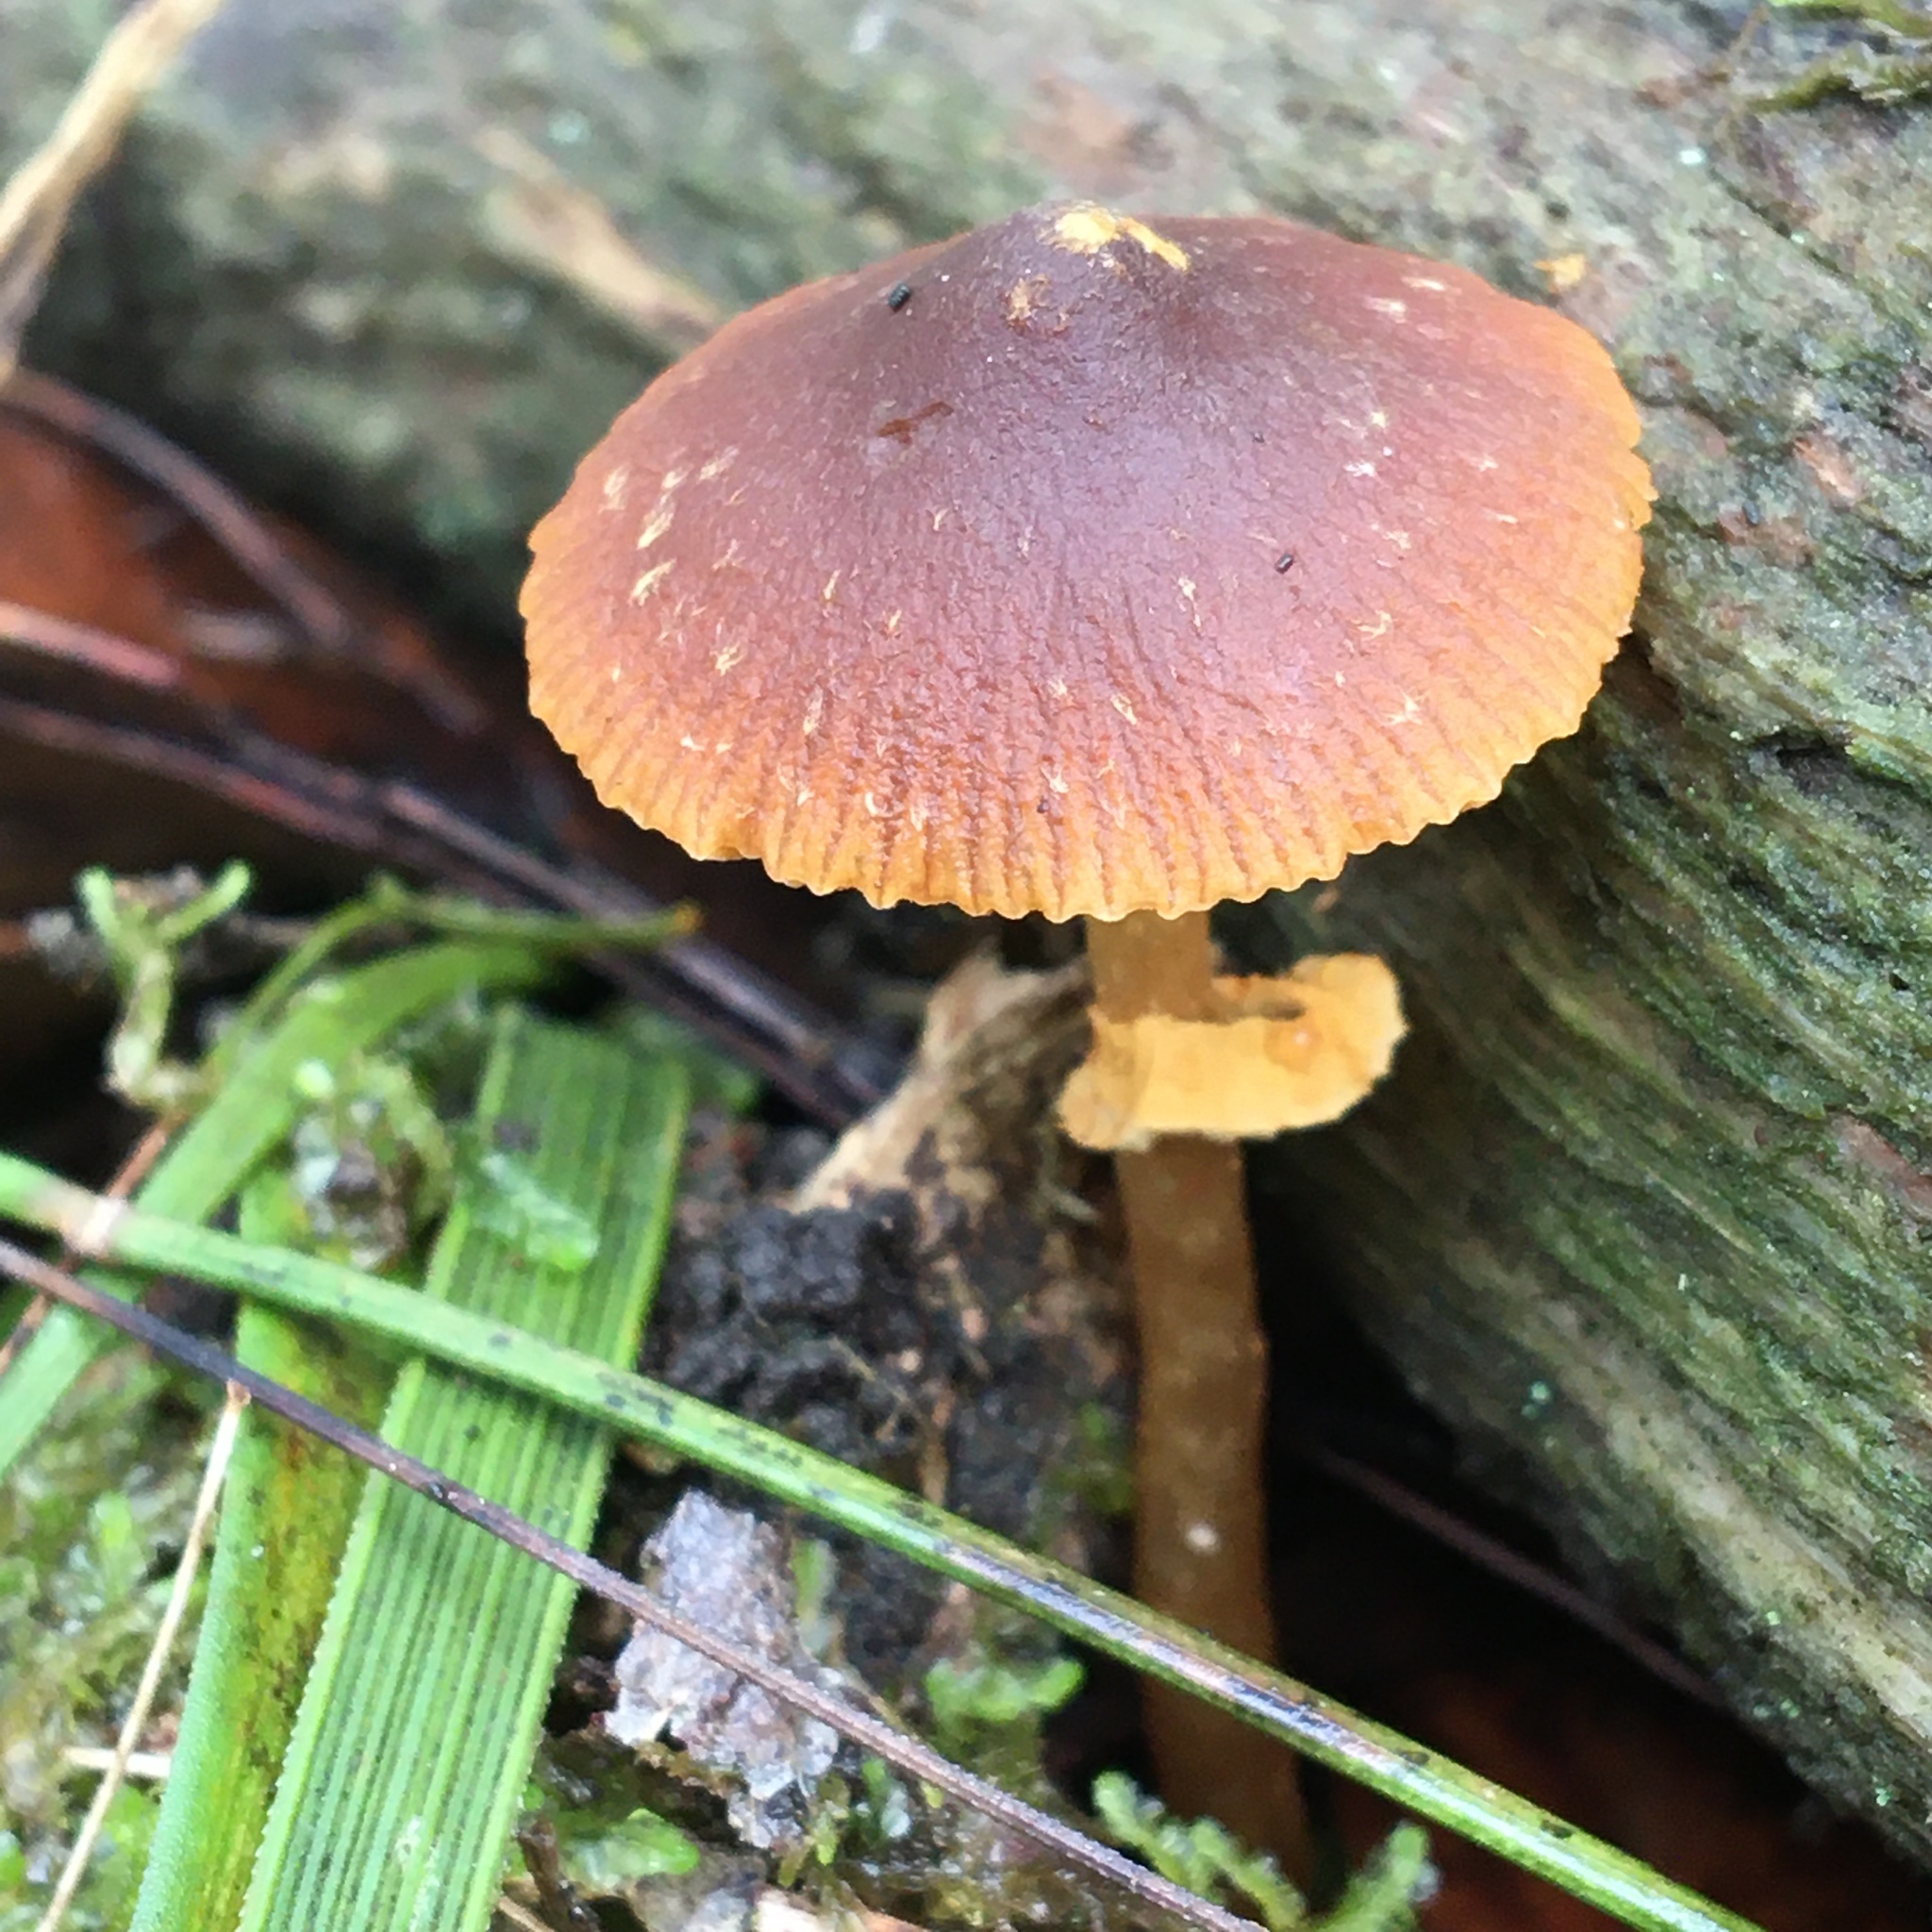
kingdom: Fungi
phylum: Basidiomycota
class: Agaricomycetes
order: Agaricales
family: Bolbitiaceae
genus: Descolea
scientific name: Descolea recedens
